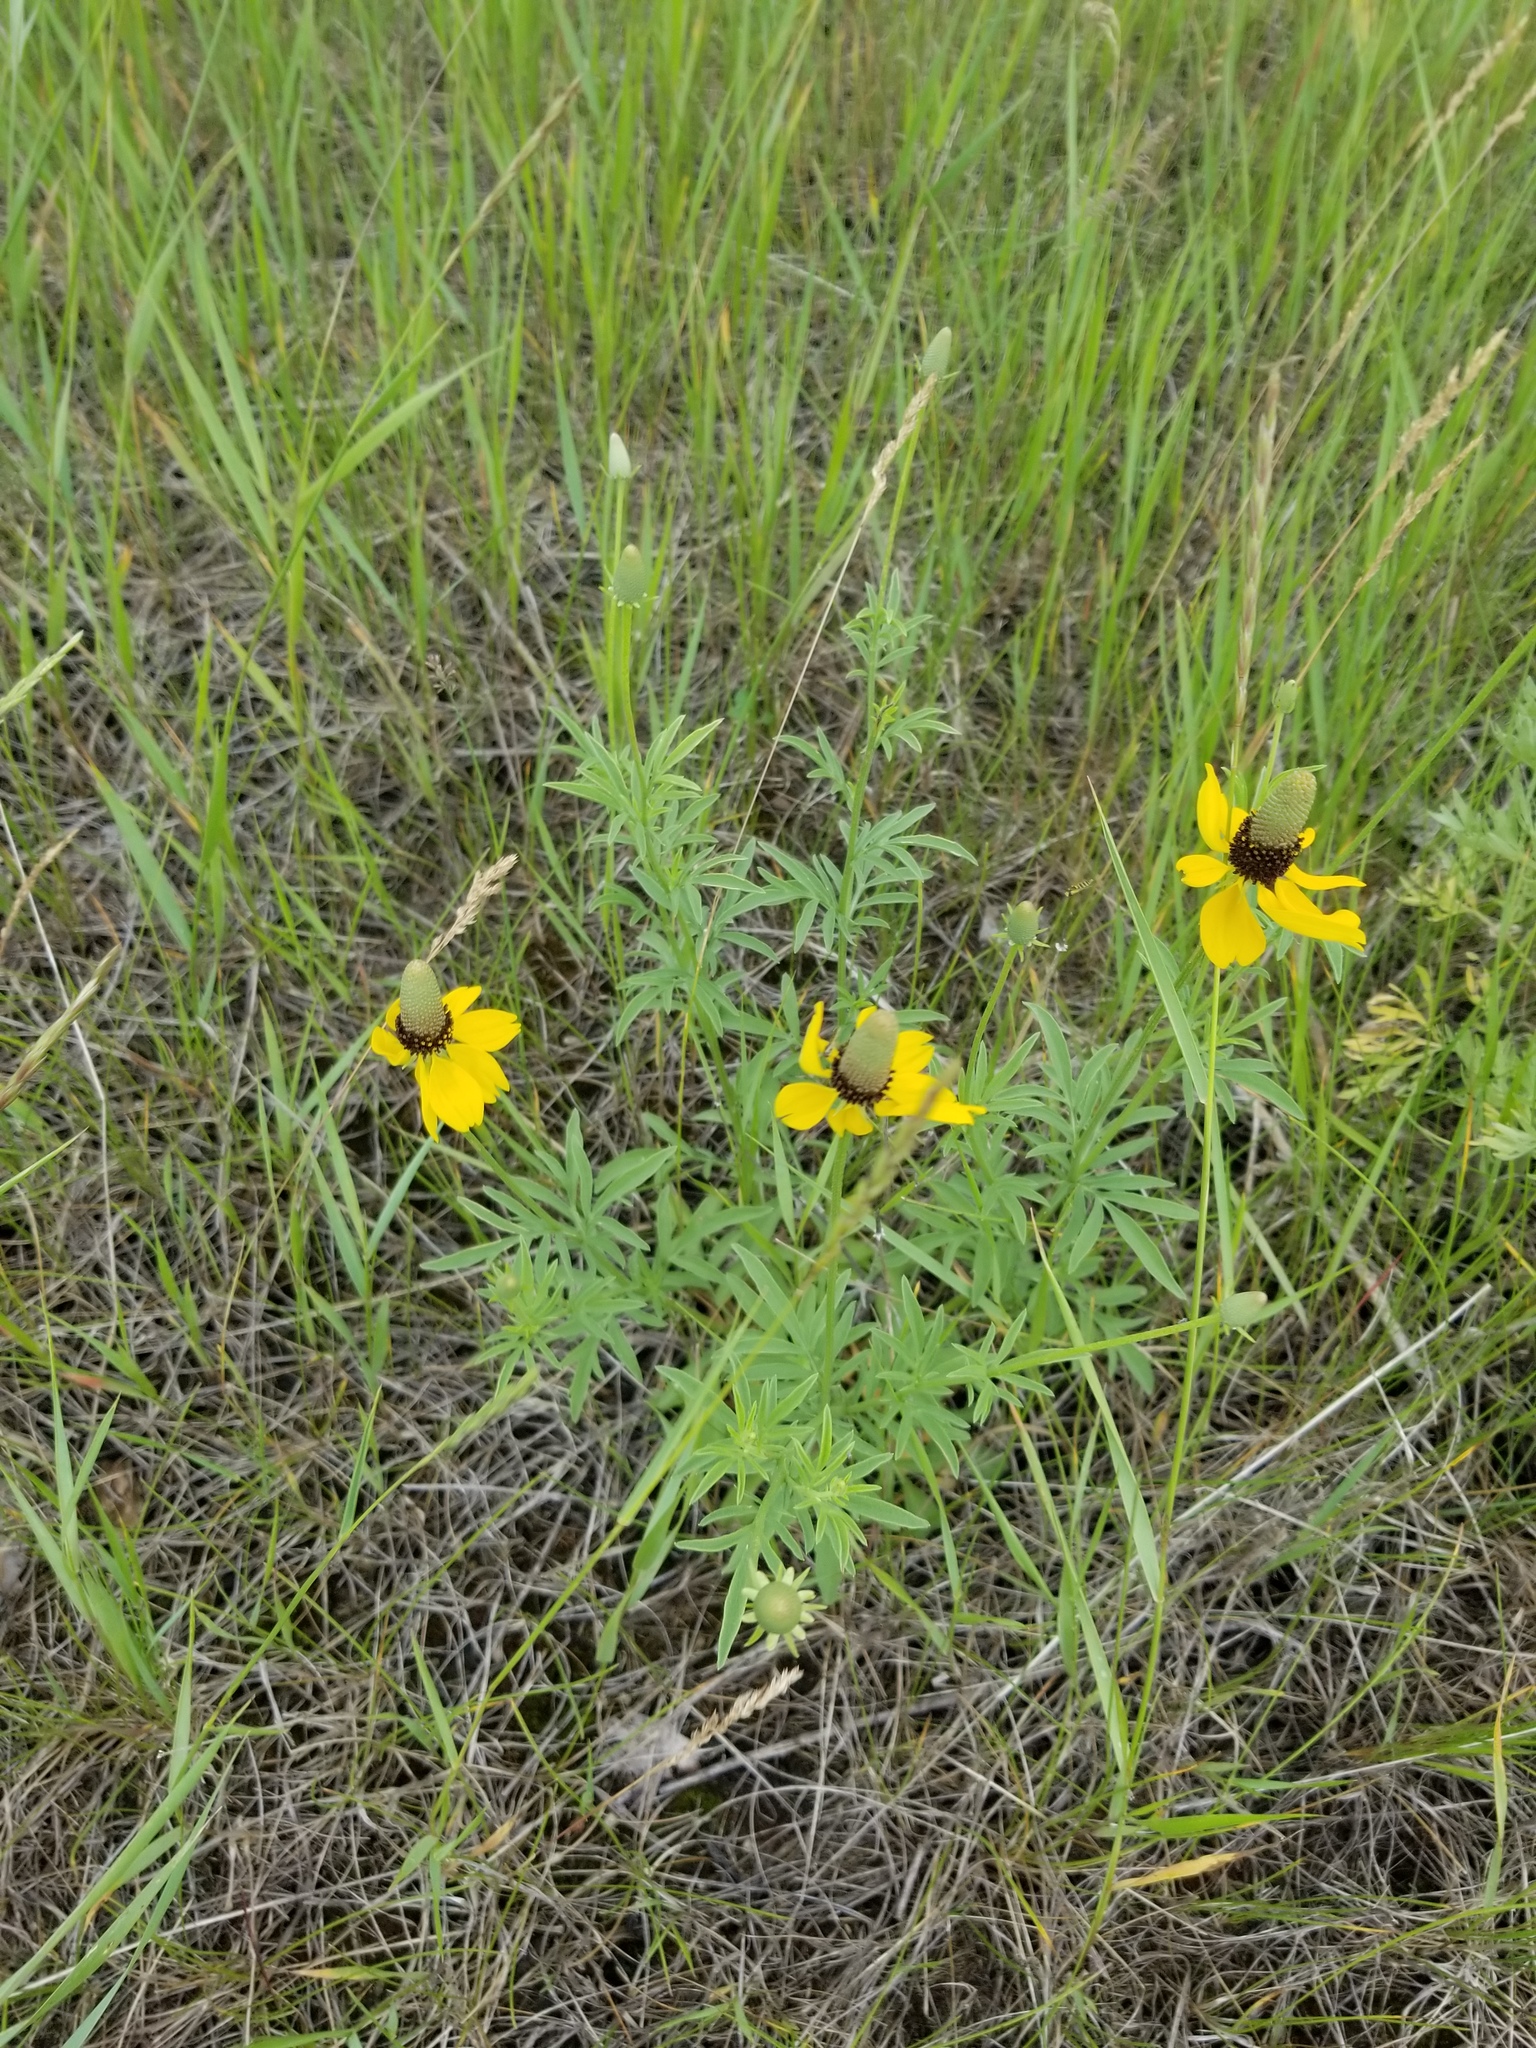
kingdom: Plantae
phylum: Tracheophyta
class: Magnoliopsida
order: Asterales
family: Asteraceae
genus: Ratibida
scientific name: Ratibida columnifera
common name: Prairie coneflower
